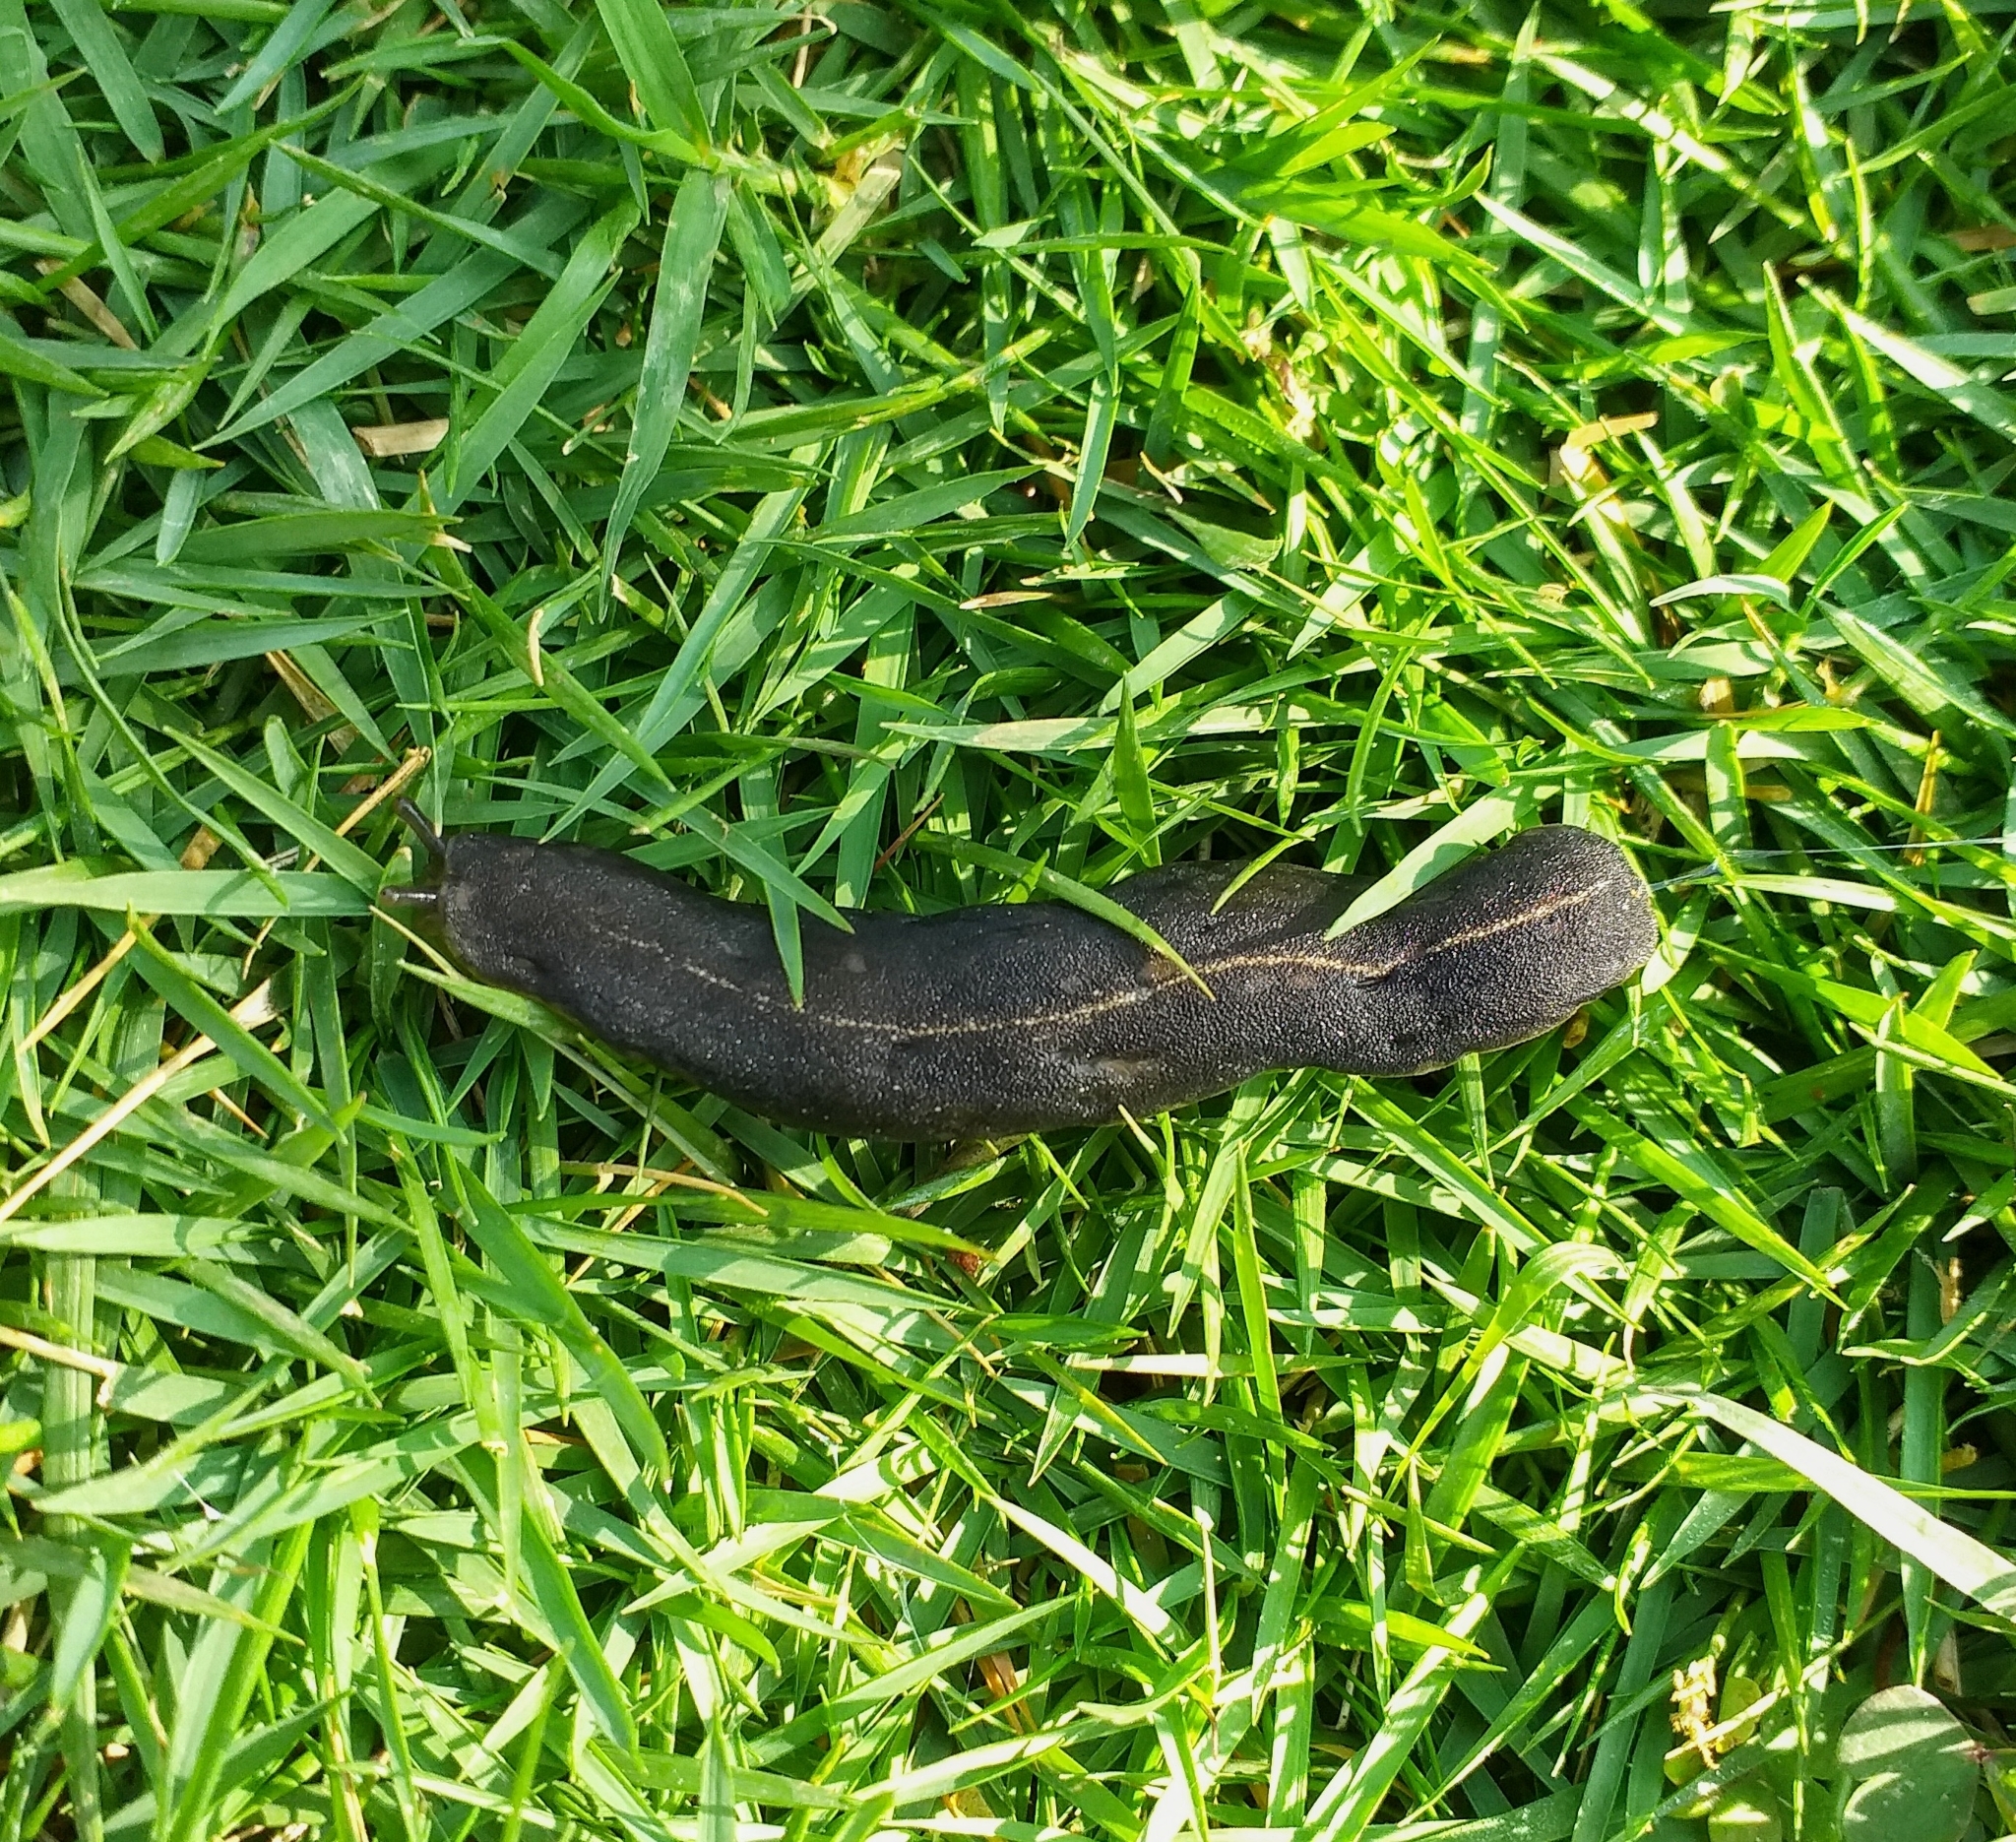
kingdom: Animalia
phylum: Mollusca
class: Gastropoda
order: Systellommatophora
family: Veronicellidae
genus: Laevicaulis
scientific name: Laevicaulis alte
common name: Tropical leatherleaf
